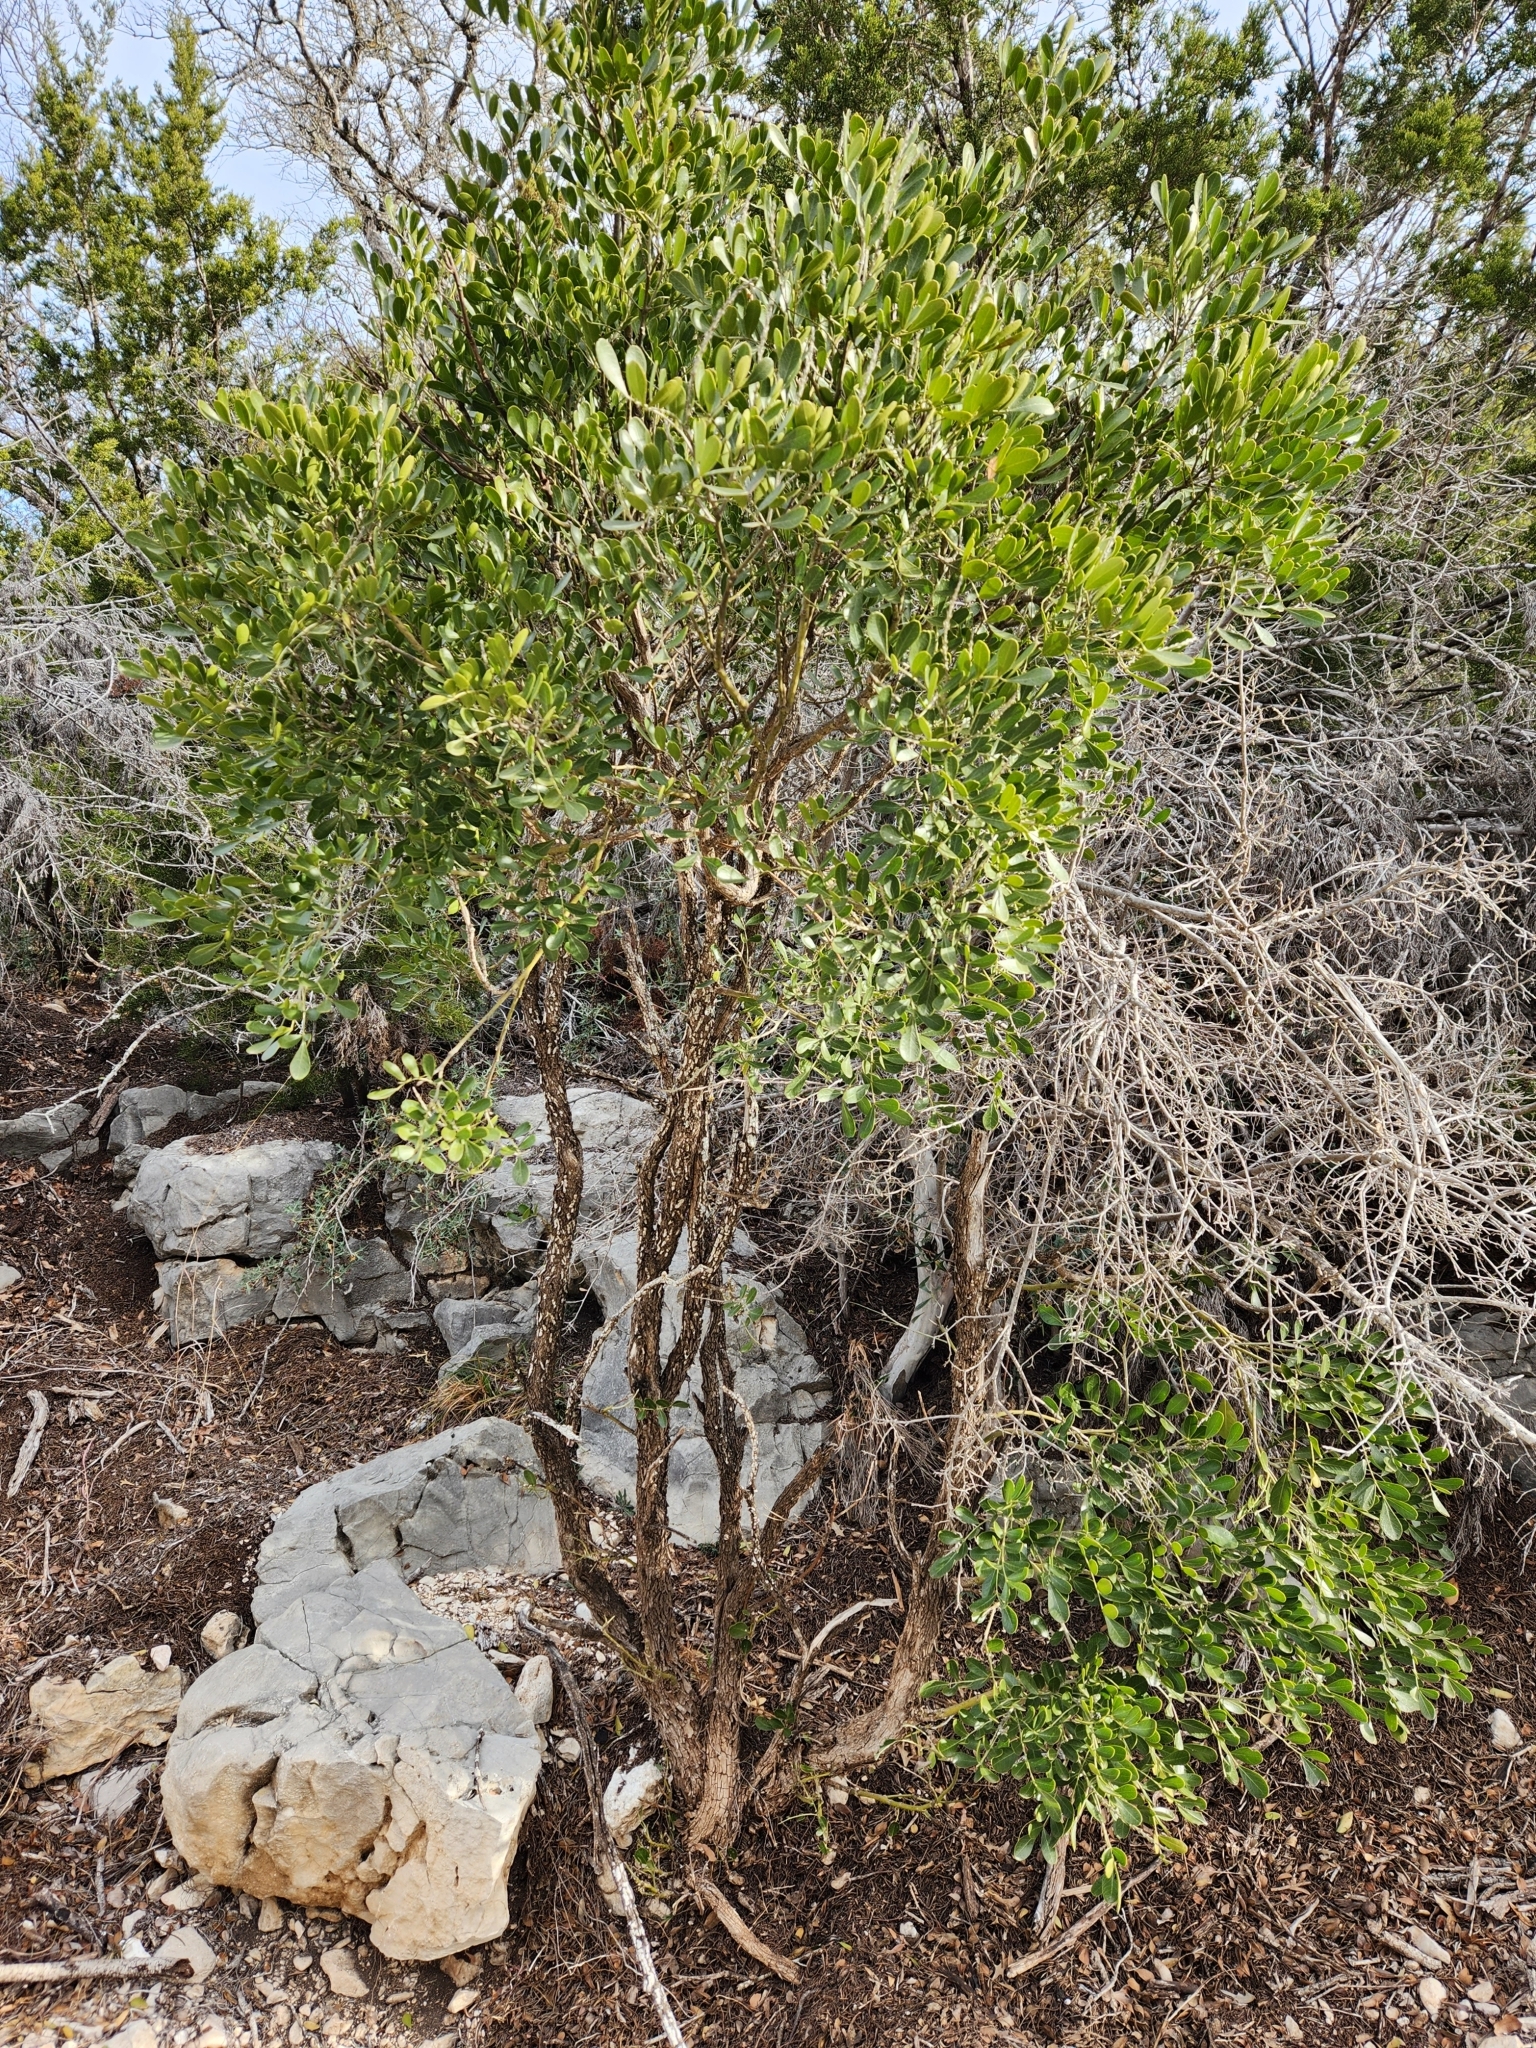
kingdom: Plantae
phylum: Tracheophyta
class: Magnoliopsida
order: Fabales
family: Fabaceae
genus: Dermatophyllum
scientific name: Dermatophyllum secundiflorum
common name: Texas-mountain-laurel
